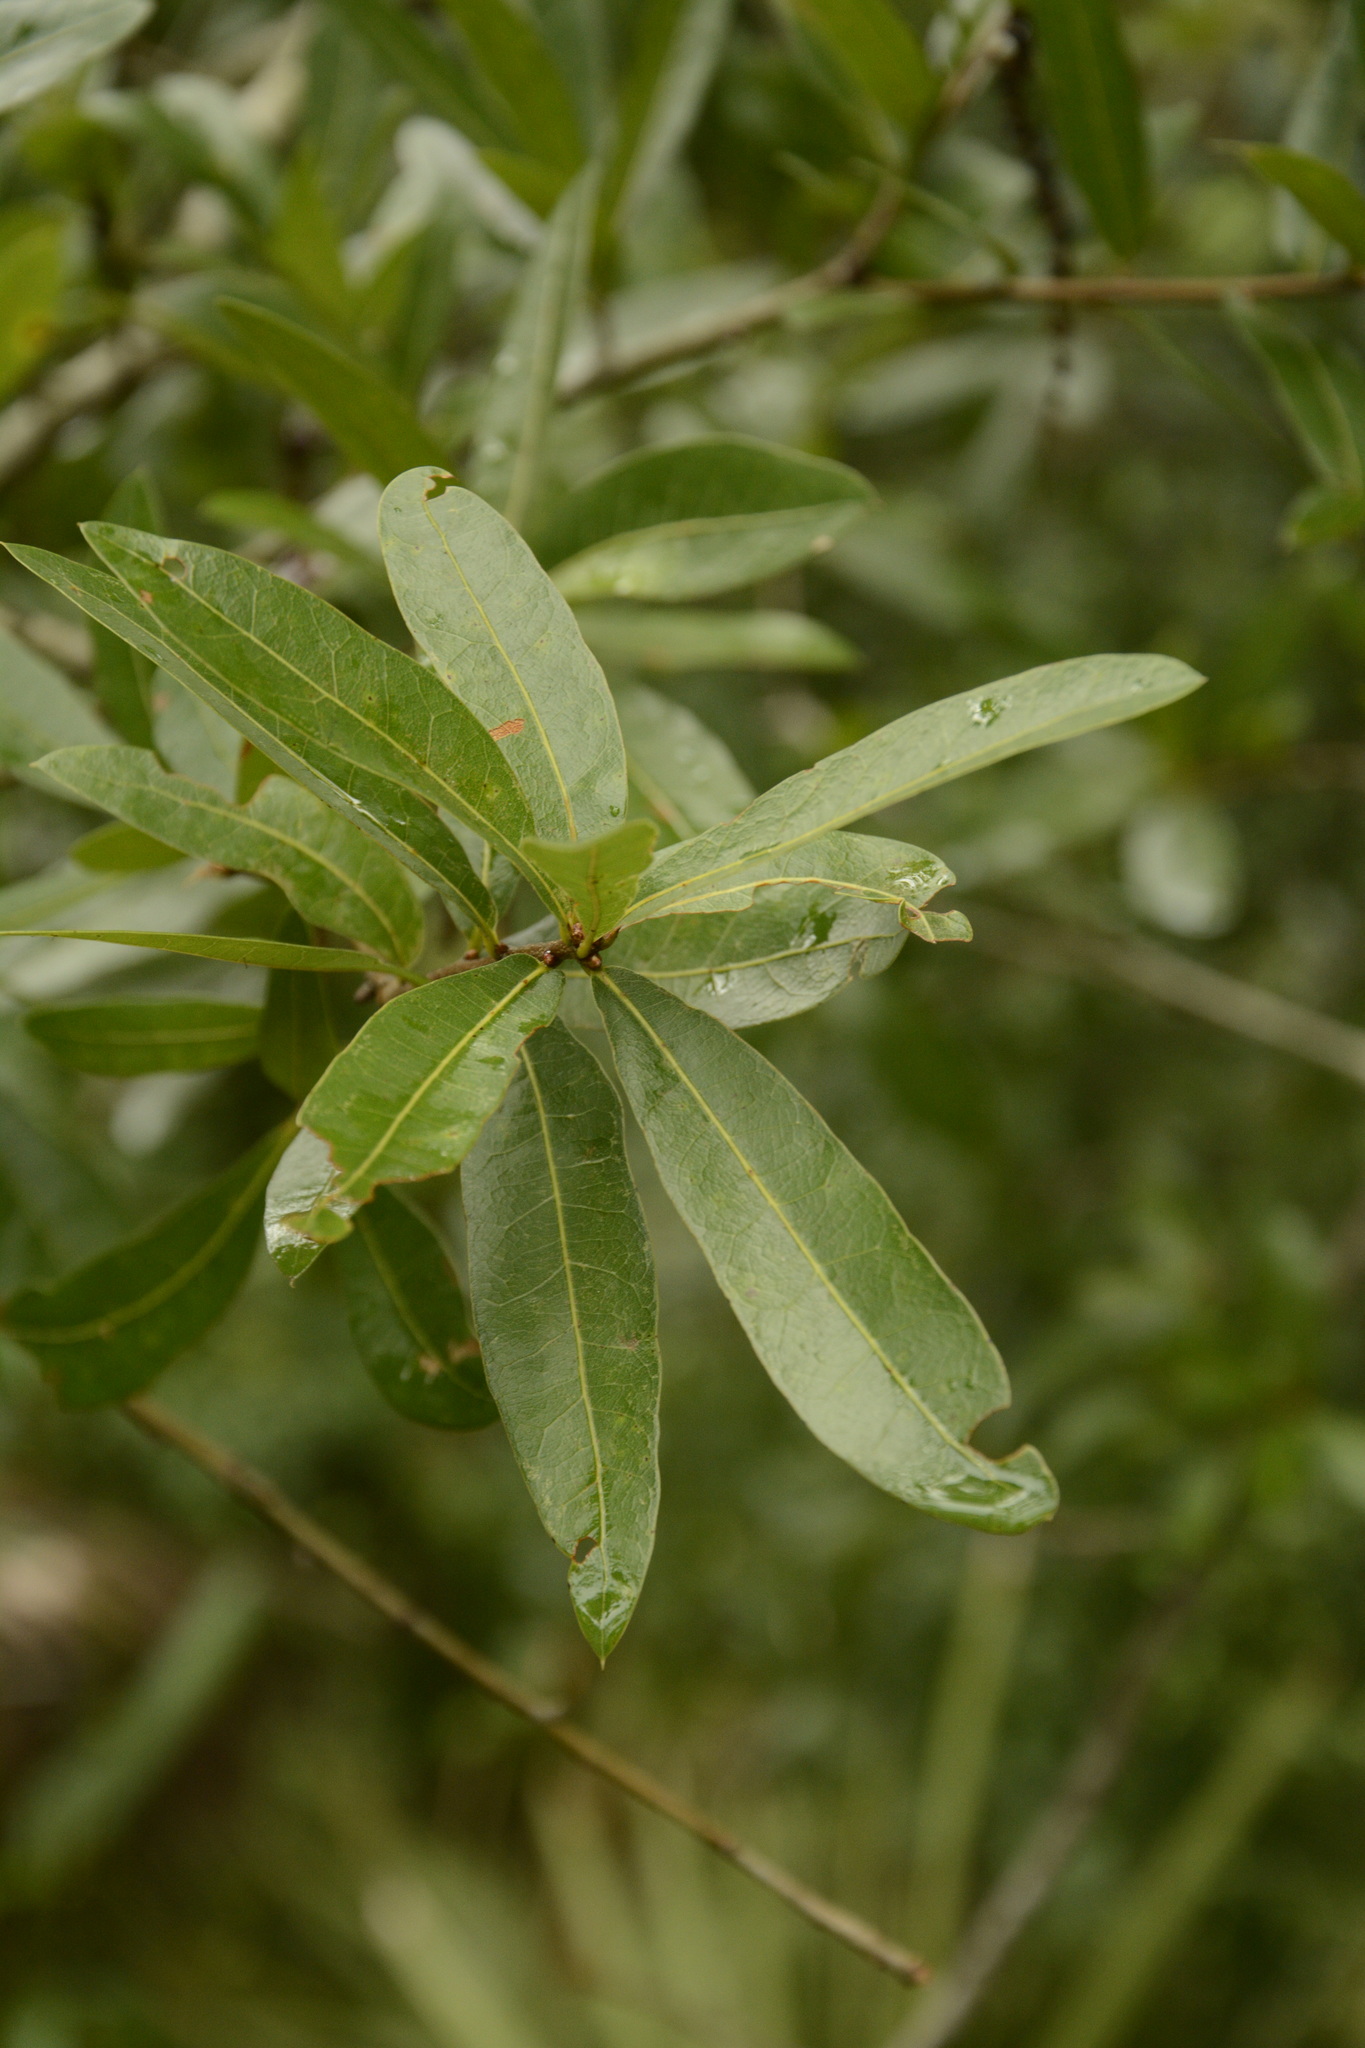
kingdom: Plantae
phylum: Tracheophyta
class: Magnoliopsida
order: Fagales
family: Fagaceae
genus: Quercus
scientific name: Quercus hemisphaerica
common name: Darlington oak
